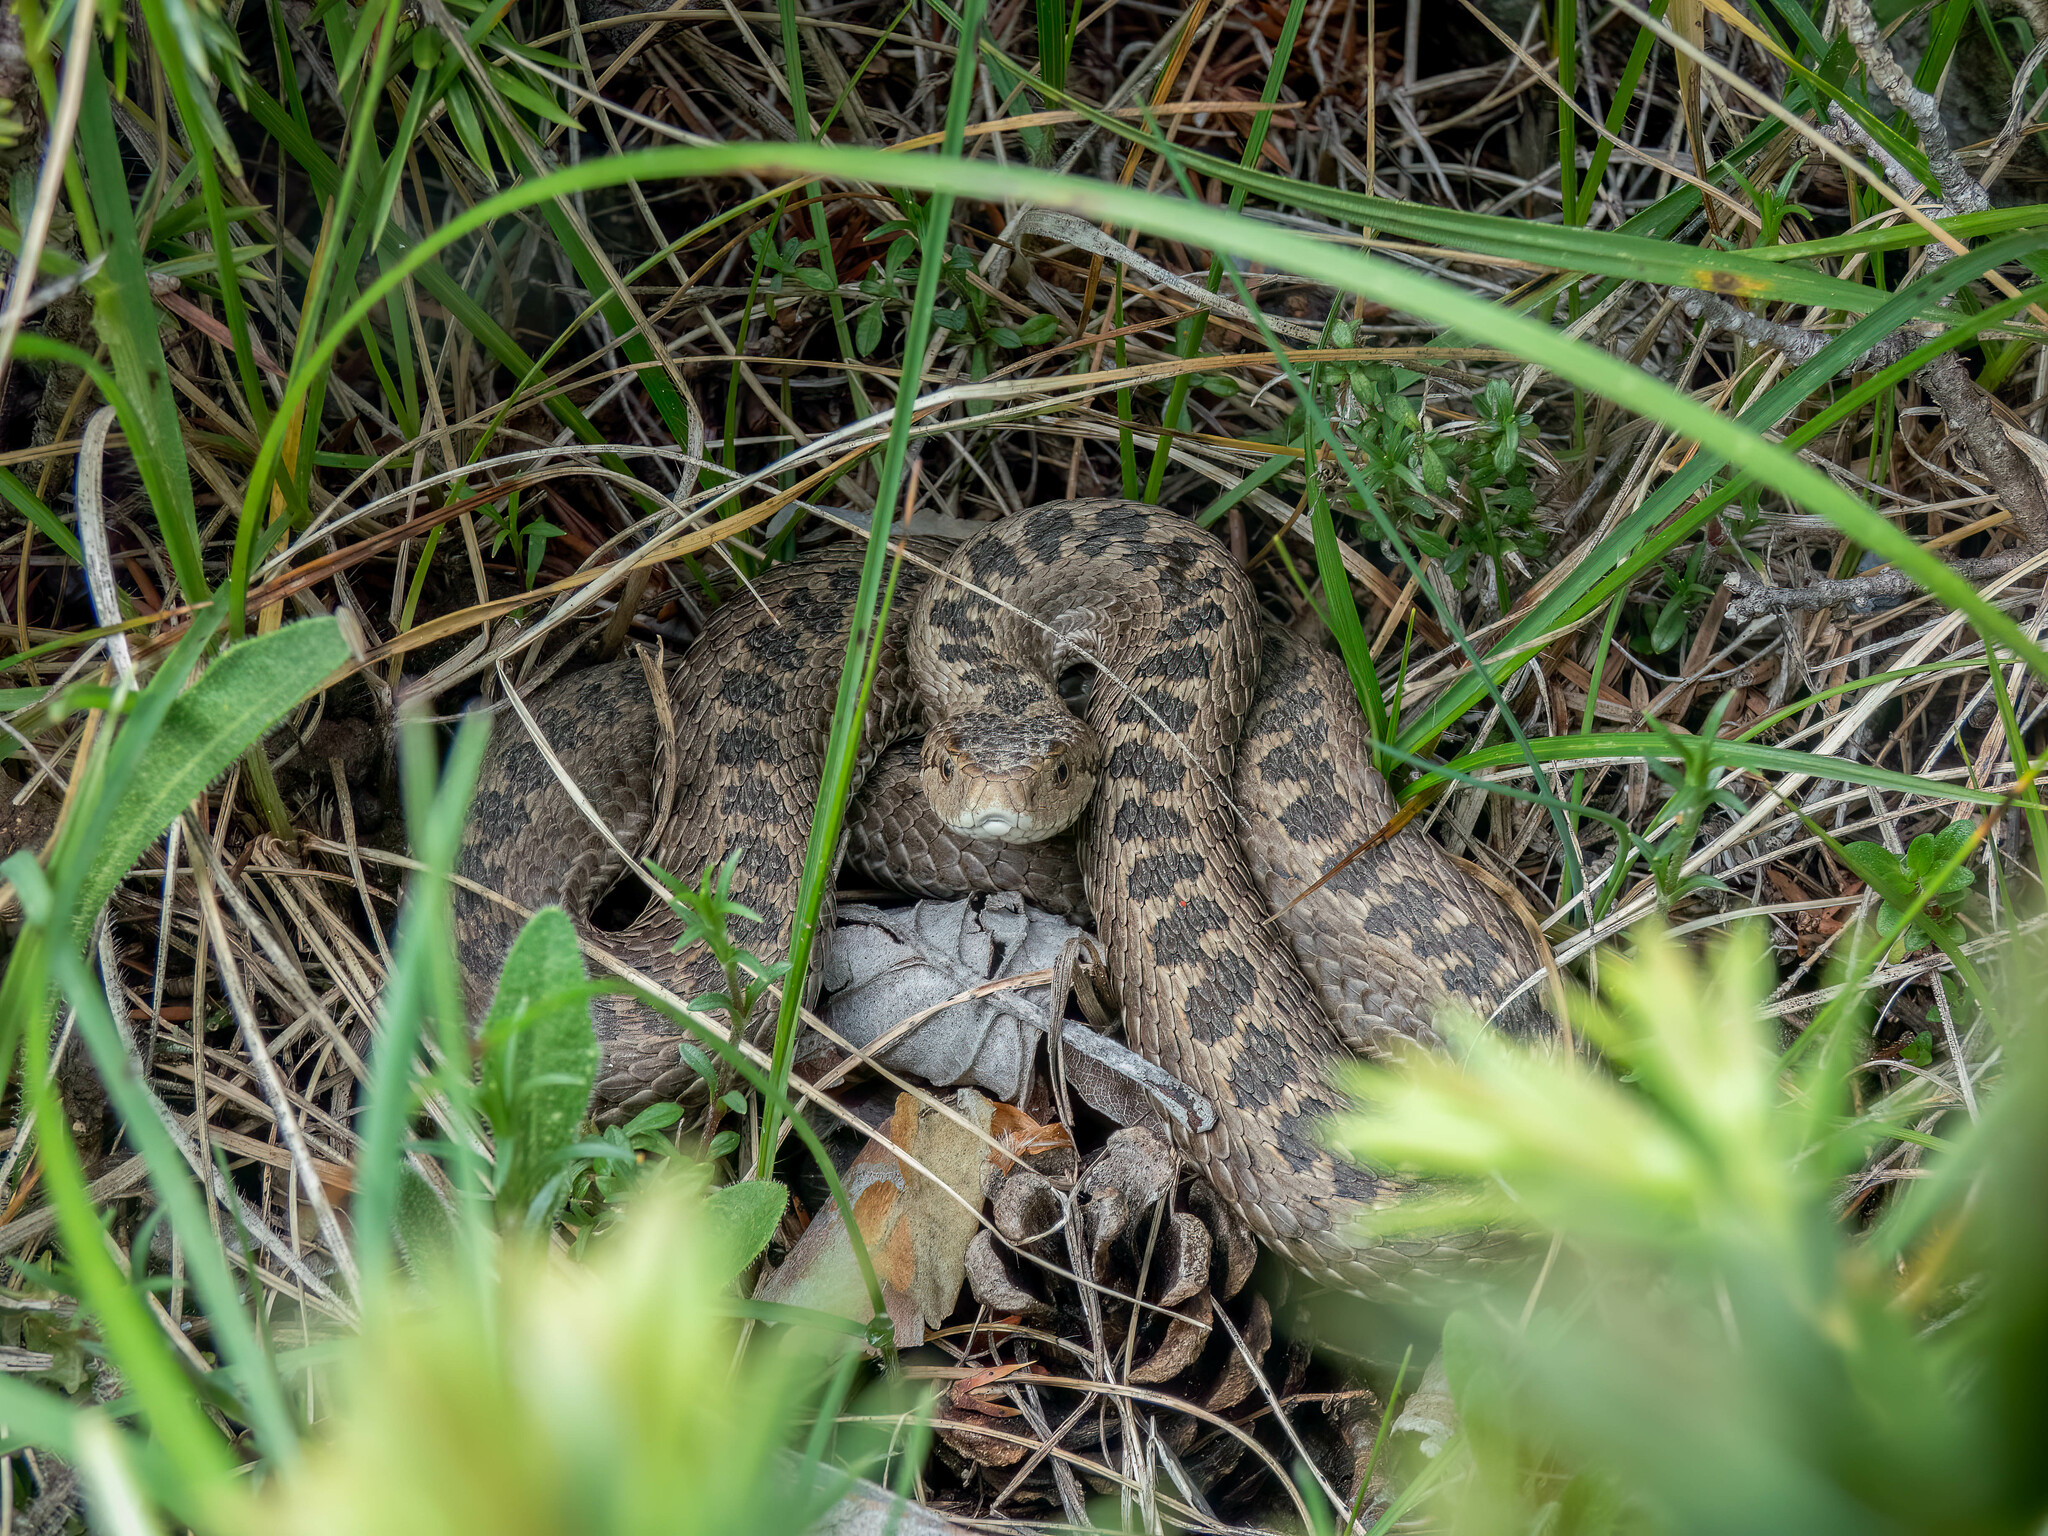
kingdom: Animalia
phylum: Chordata
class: Squamata
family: Viperidae
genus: Vipera
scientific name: Vipera ursinii
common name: Meadow viper
